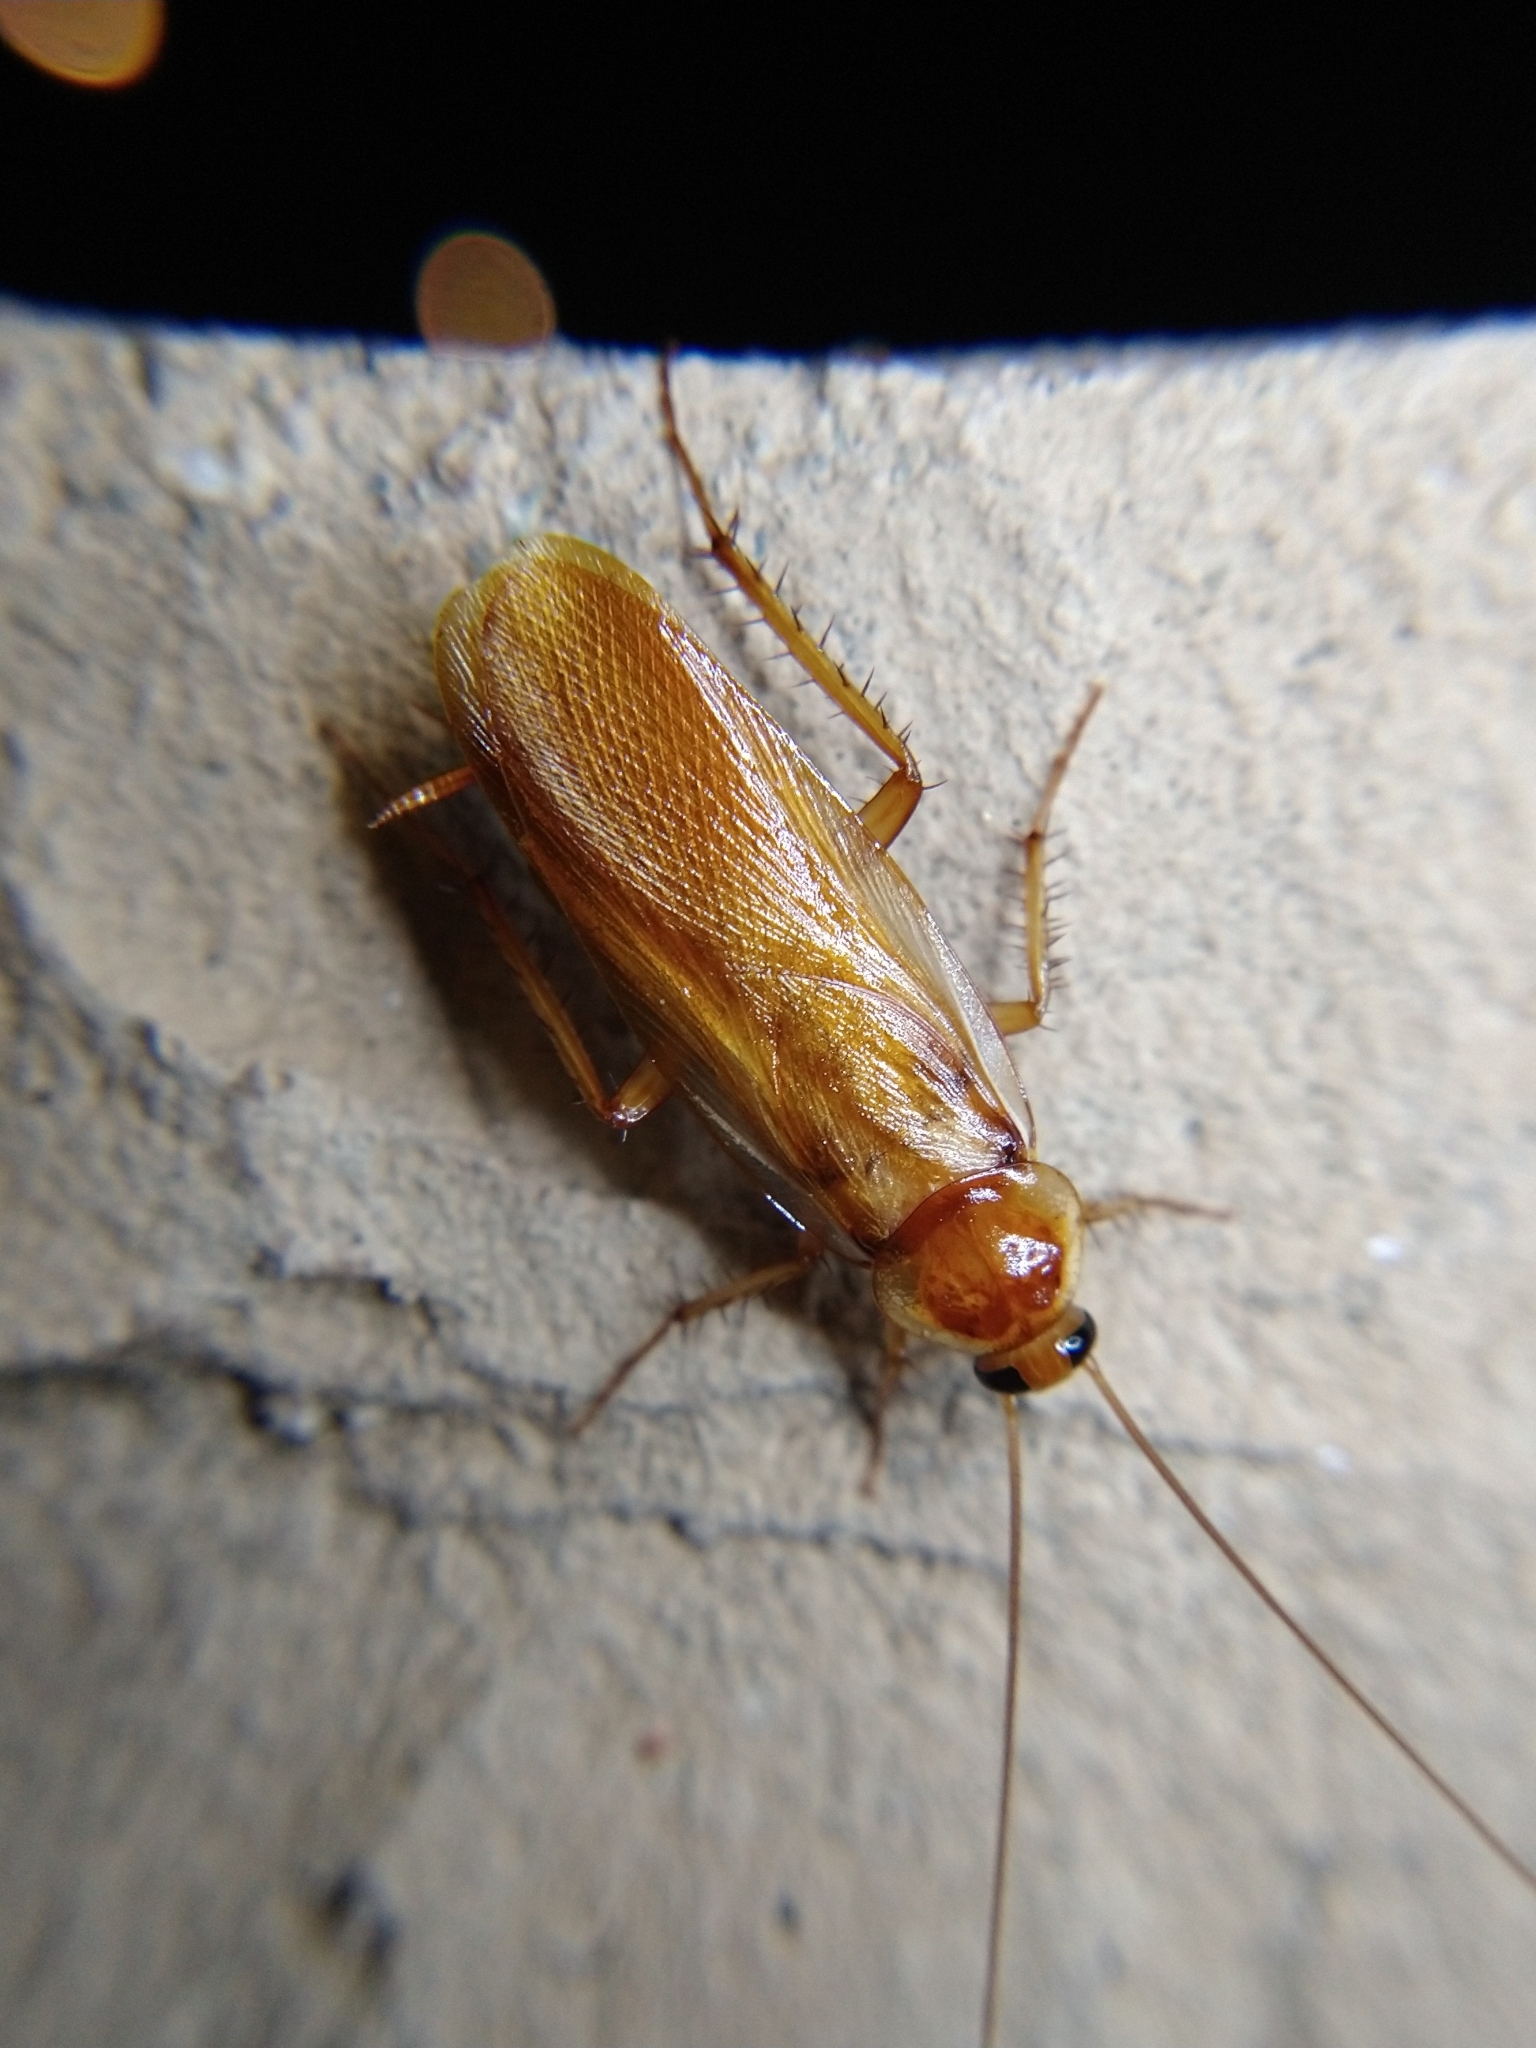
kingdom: Animalia
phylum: Arthropoda
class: Insecta
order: Blattodea
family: Blattidae
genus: Periplaneta
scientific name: Periplaneta lateralis
